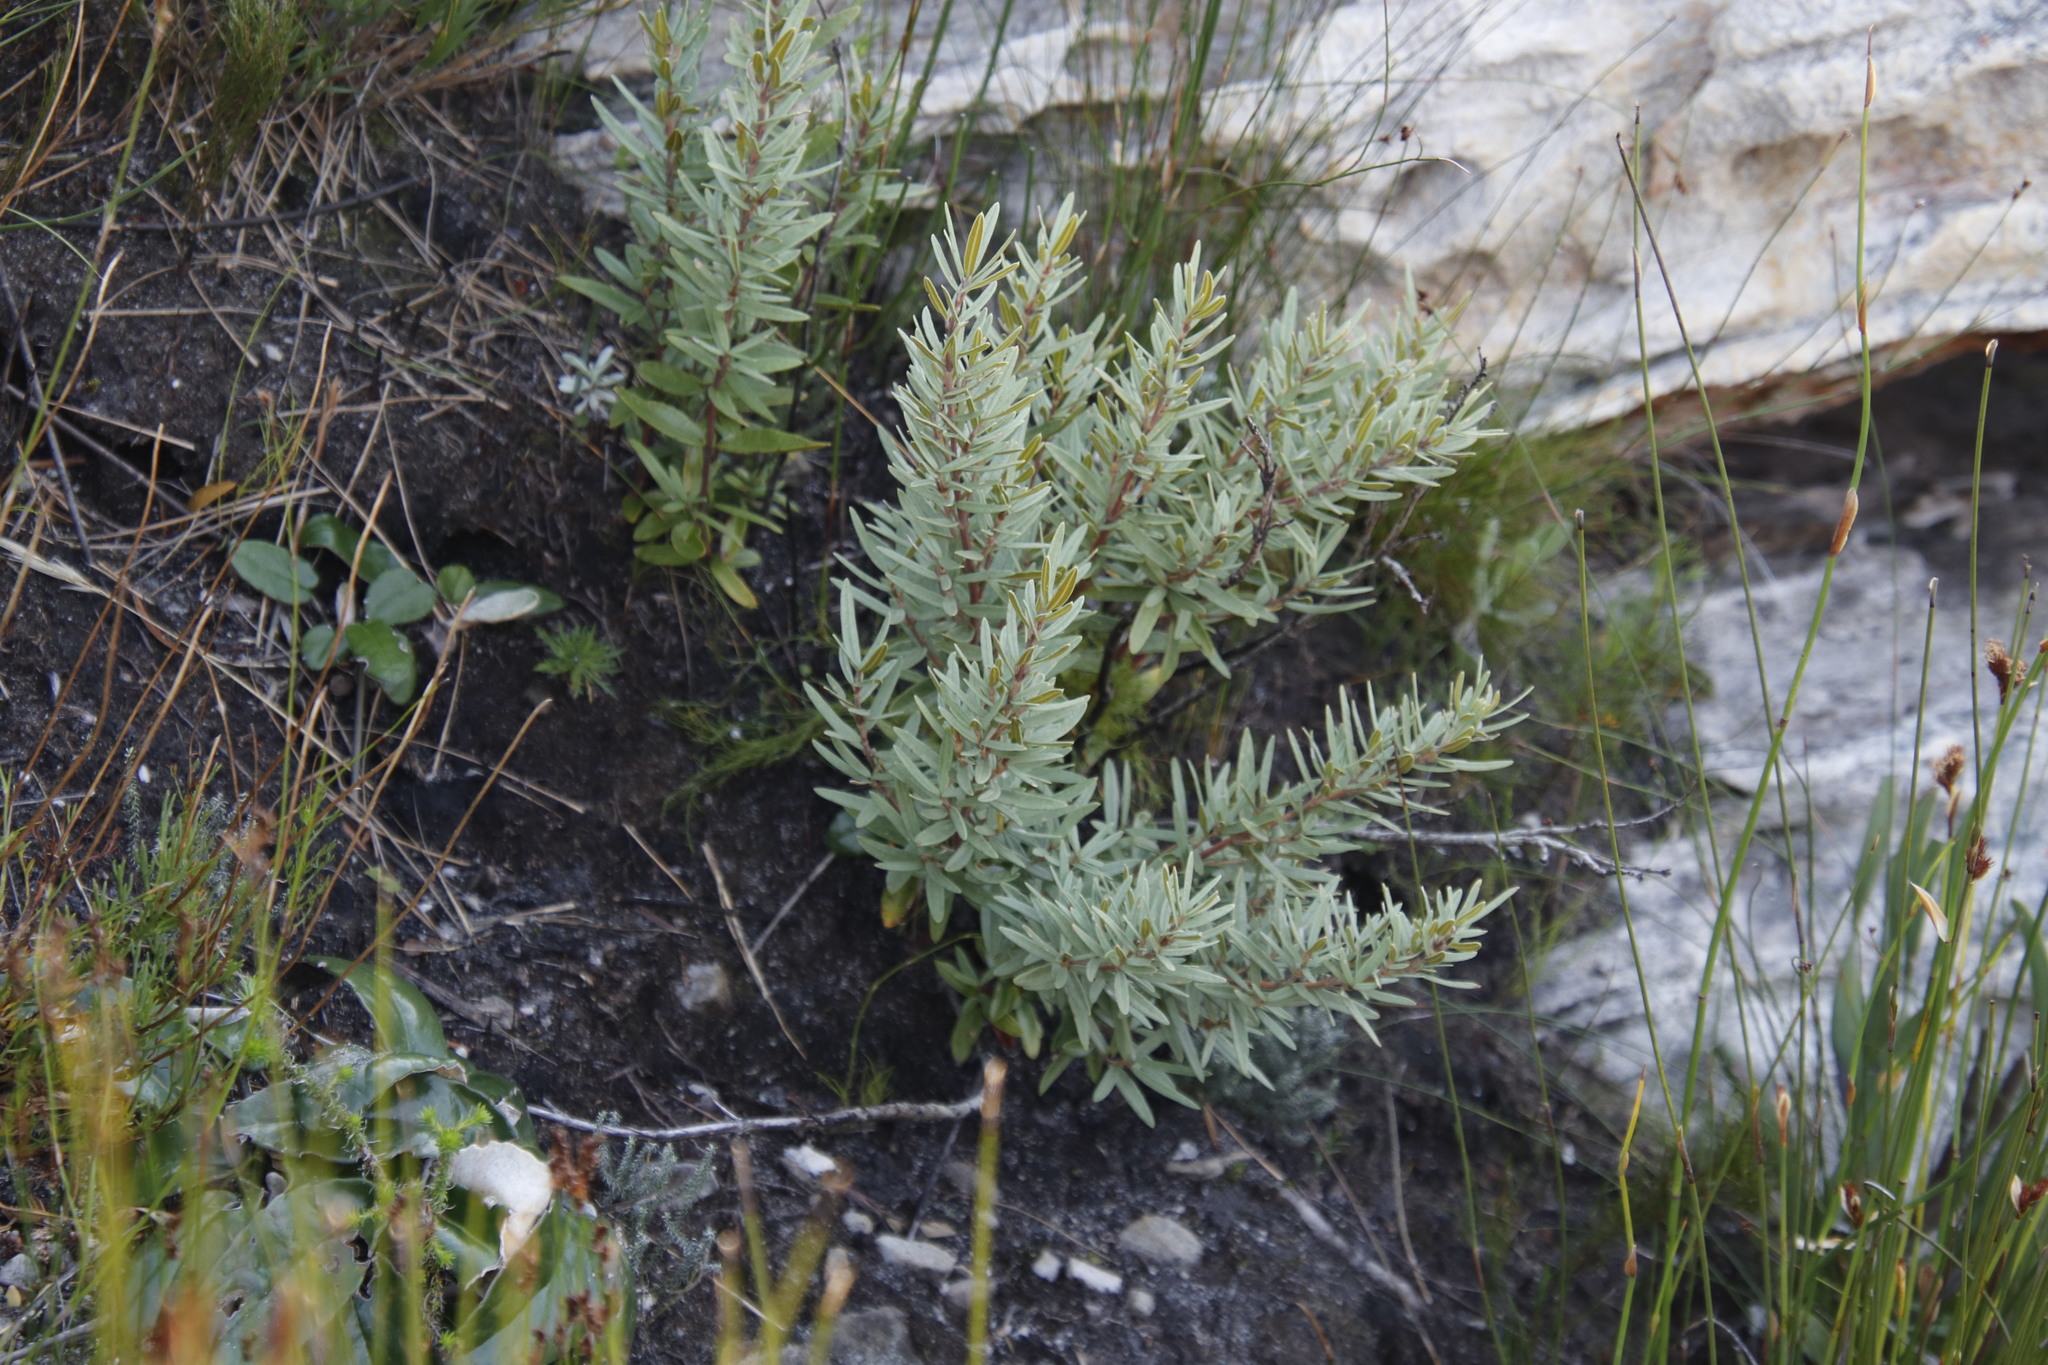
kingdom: Plantae
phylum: Tracheophyta
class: Magnoliopsida
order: Cornales
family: Grubbiaceae
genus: Grubbia
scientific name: Grubbia tomentosa
